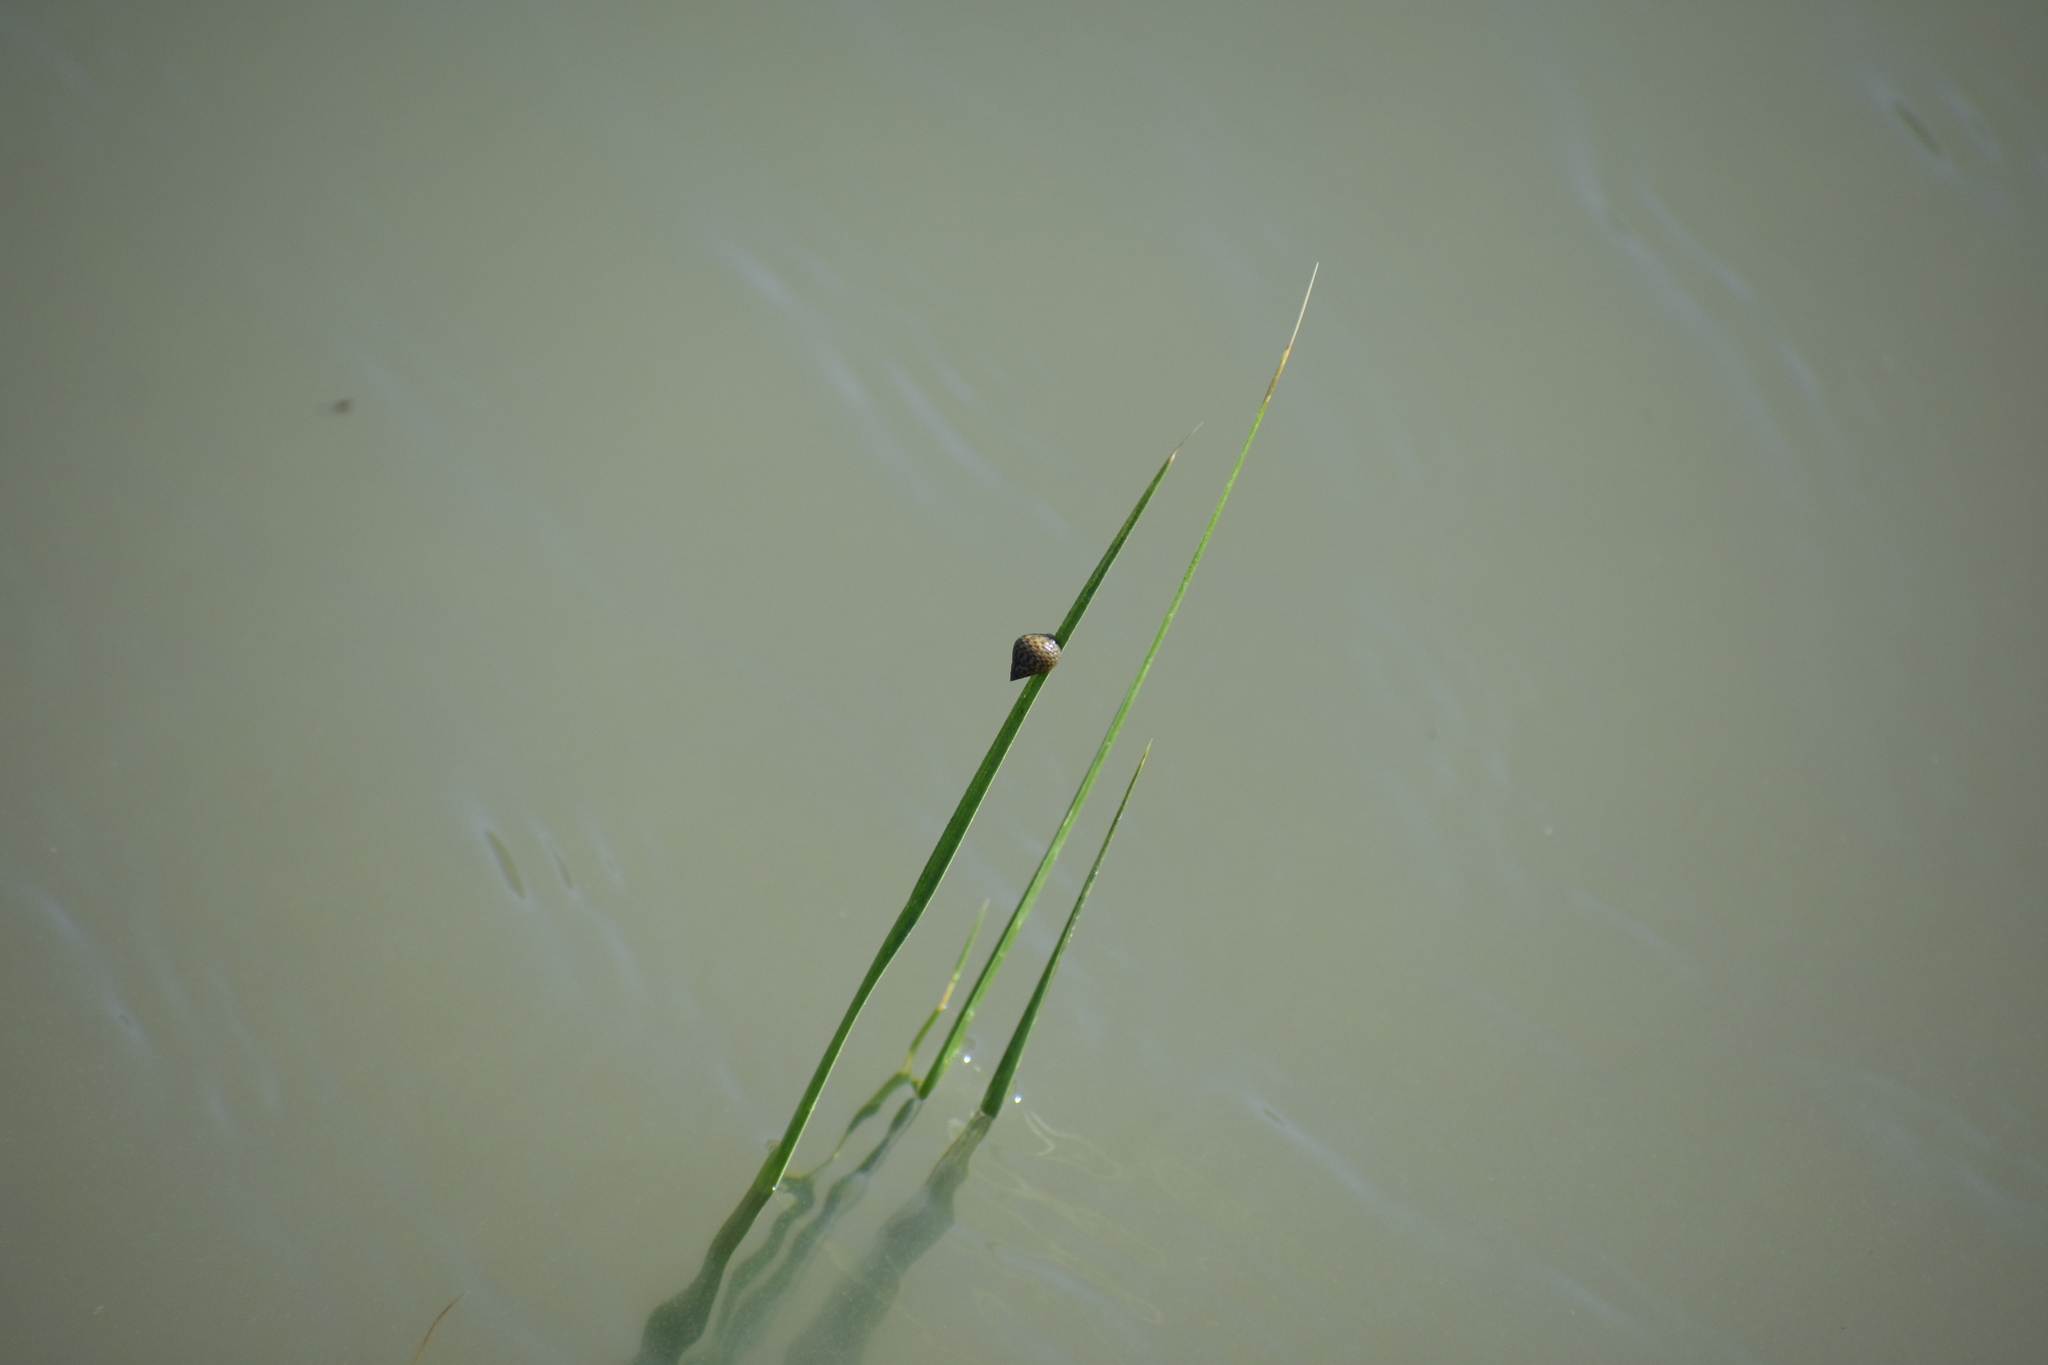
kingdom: Animalia
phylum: Mollusca
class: Gastropoda
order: Littorinimorpha
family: Littorinidae
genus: Littoraria
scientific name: Littoraria irrorata
